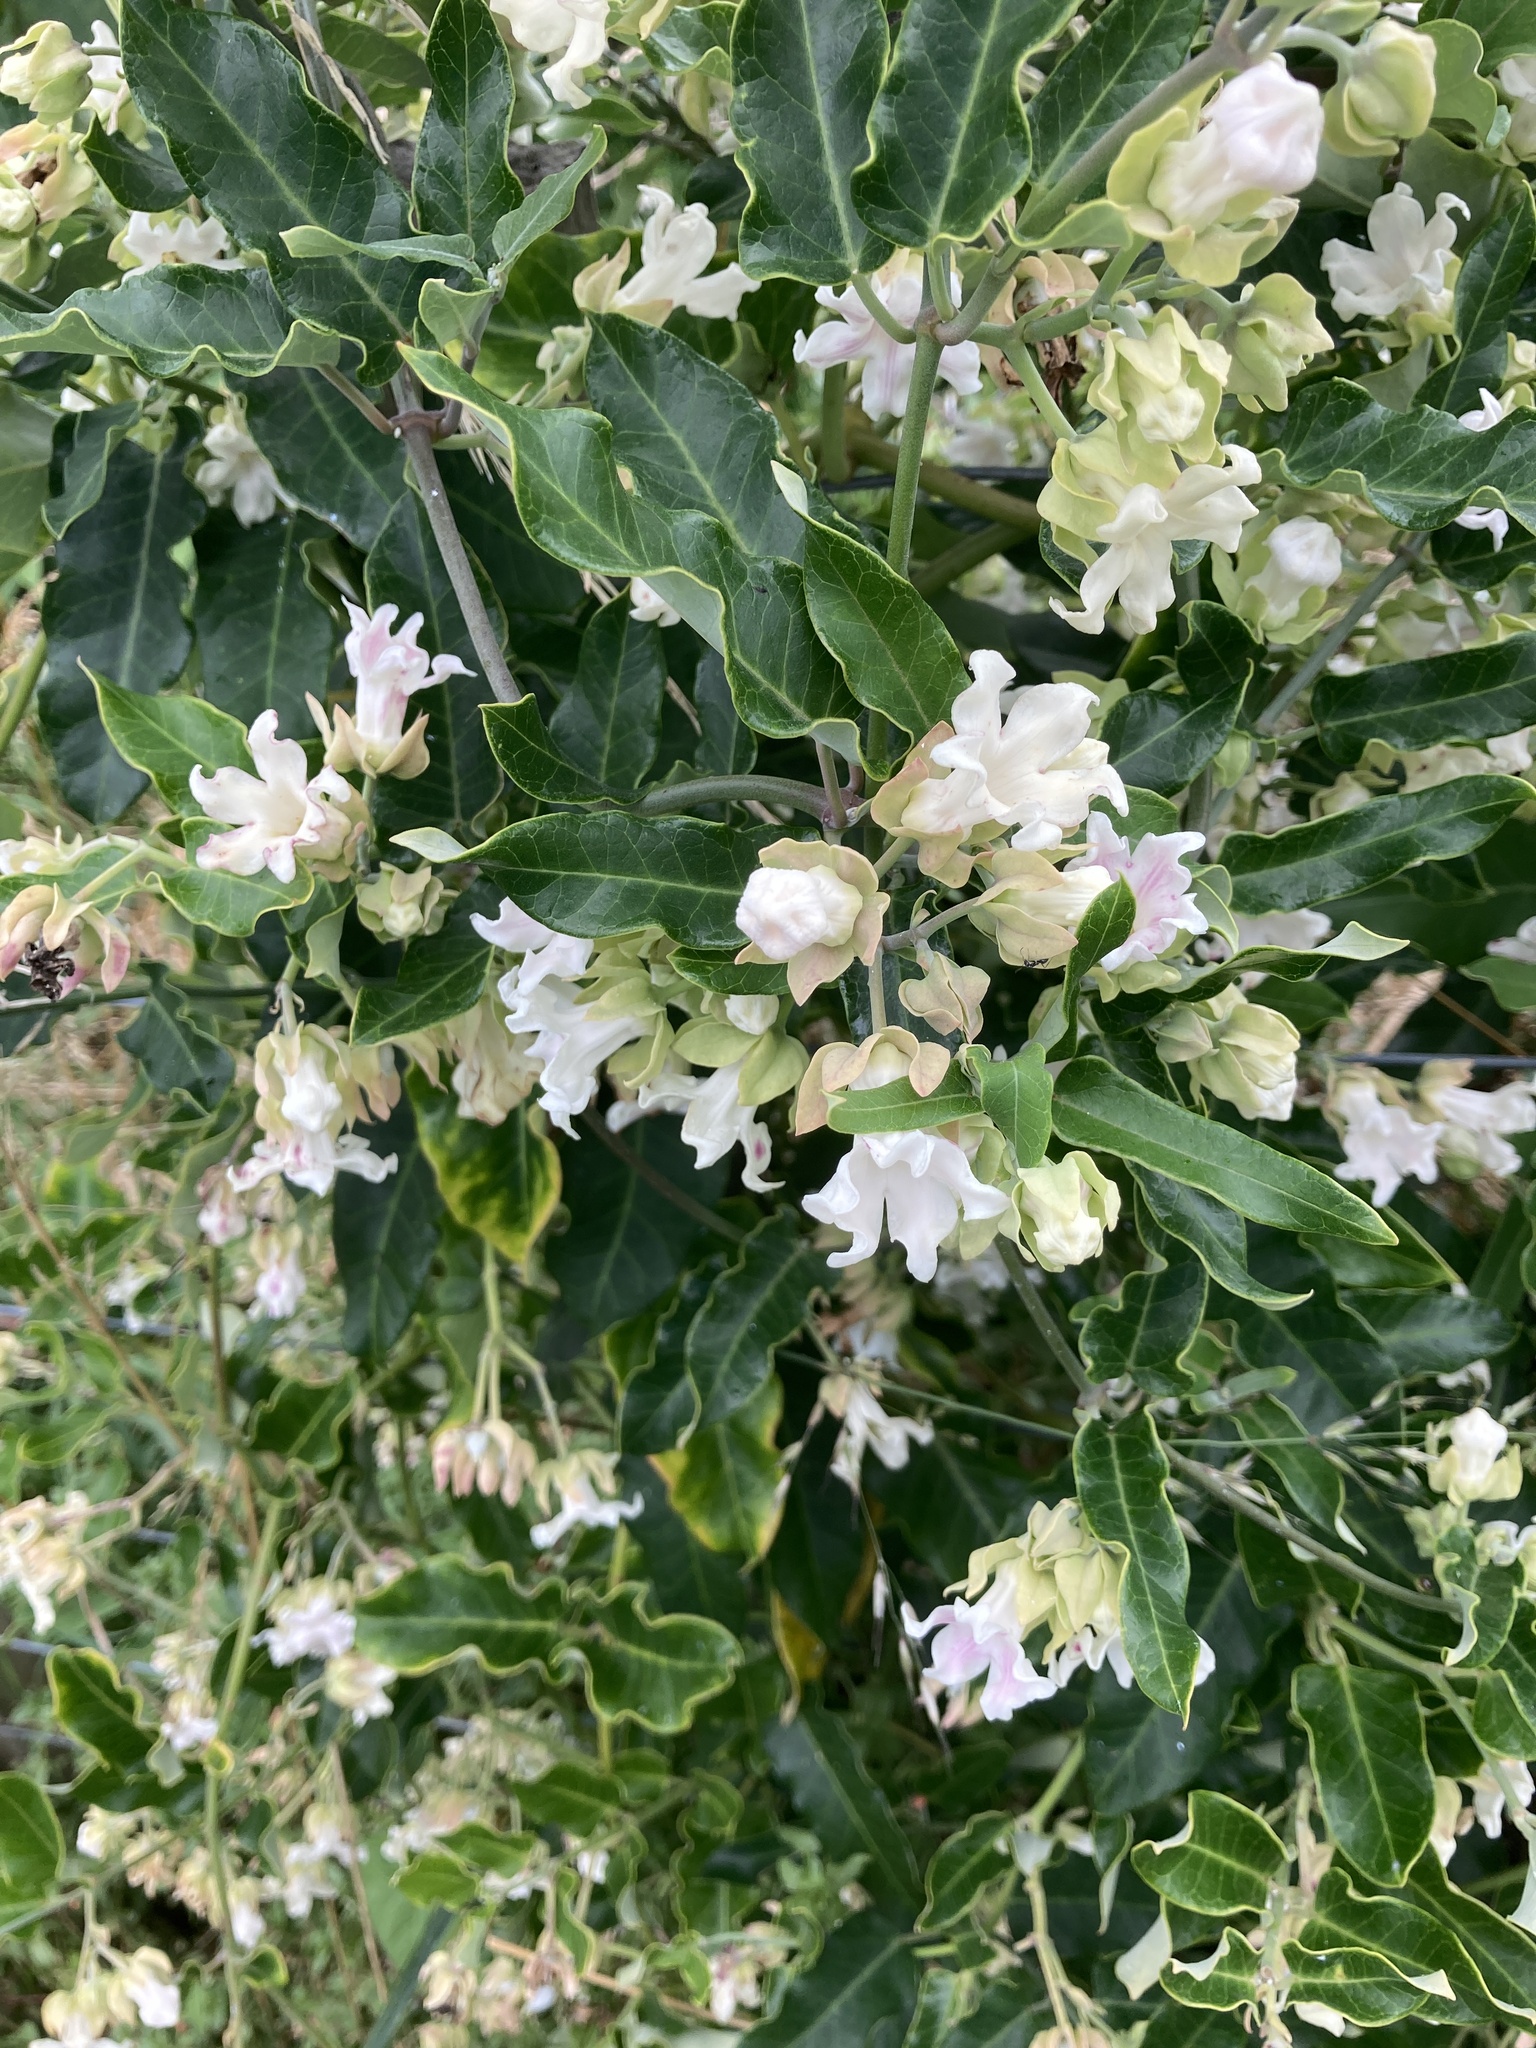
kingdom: Plantae
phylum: Tracheophyta
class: Magnoliopsida
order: Gentianales
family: Apocynaceae
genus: Araujia
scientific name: Araujia sericifera
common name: White bladderflower
